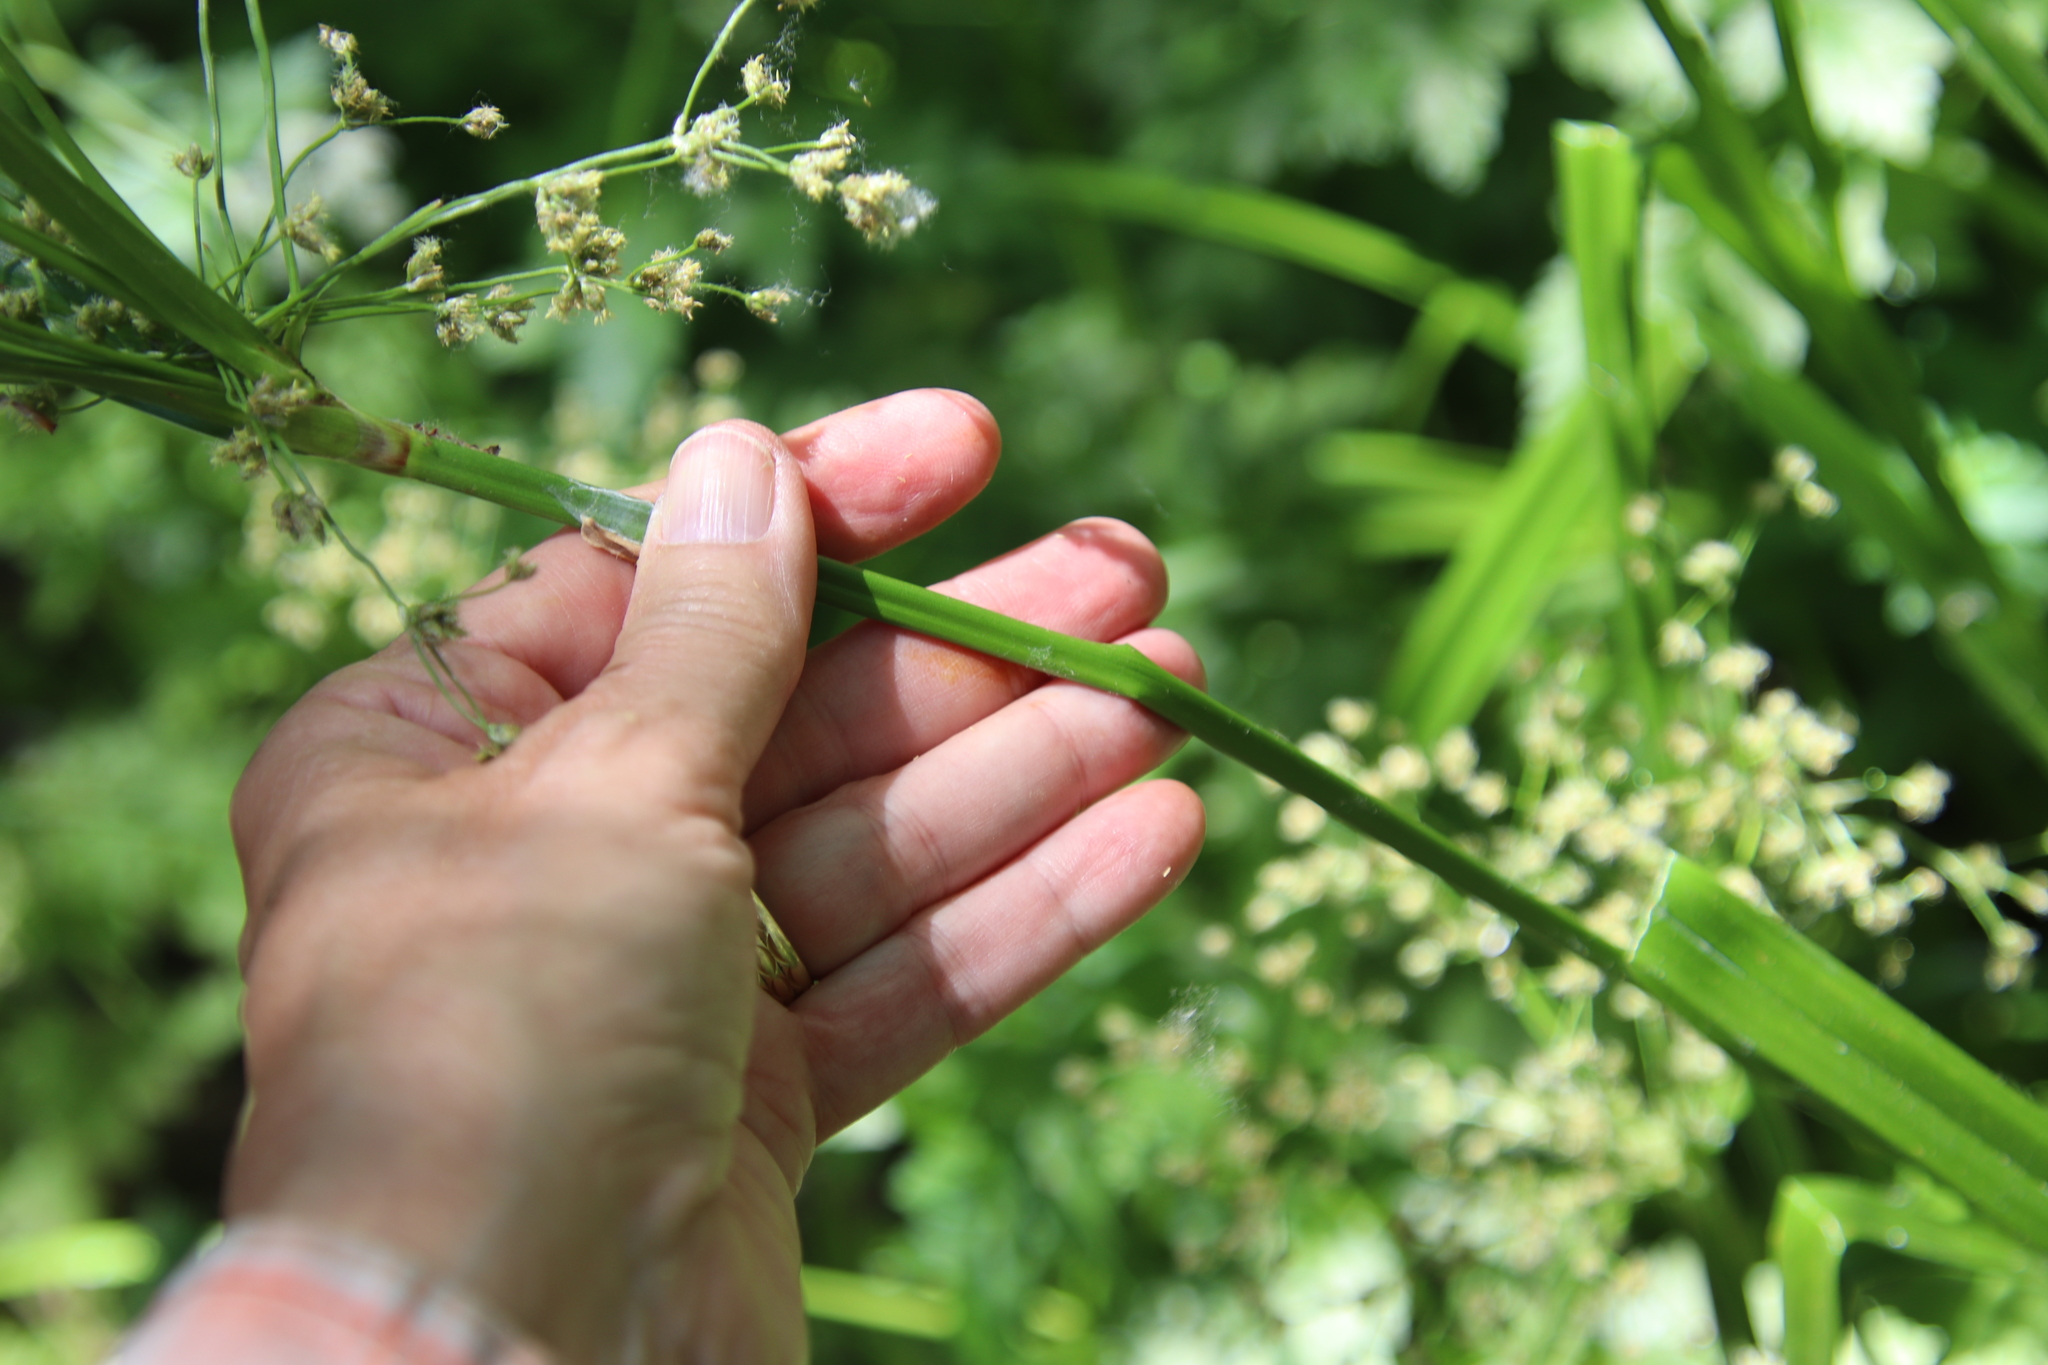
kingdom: Plantae
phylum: Tracheophyta
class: Liliopsida
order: Poales
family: Cyperaceae
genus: Scirpus
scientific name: Scirpus microcarpus
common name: Panicled bulrush
